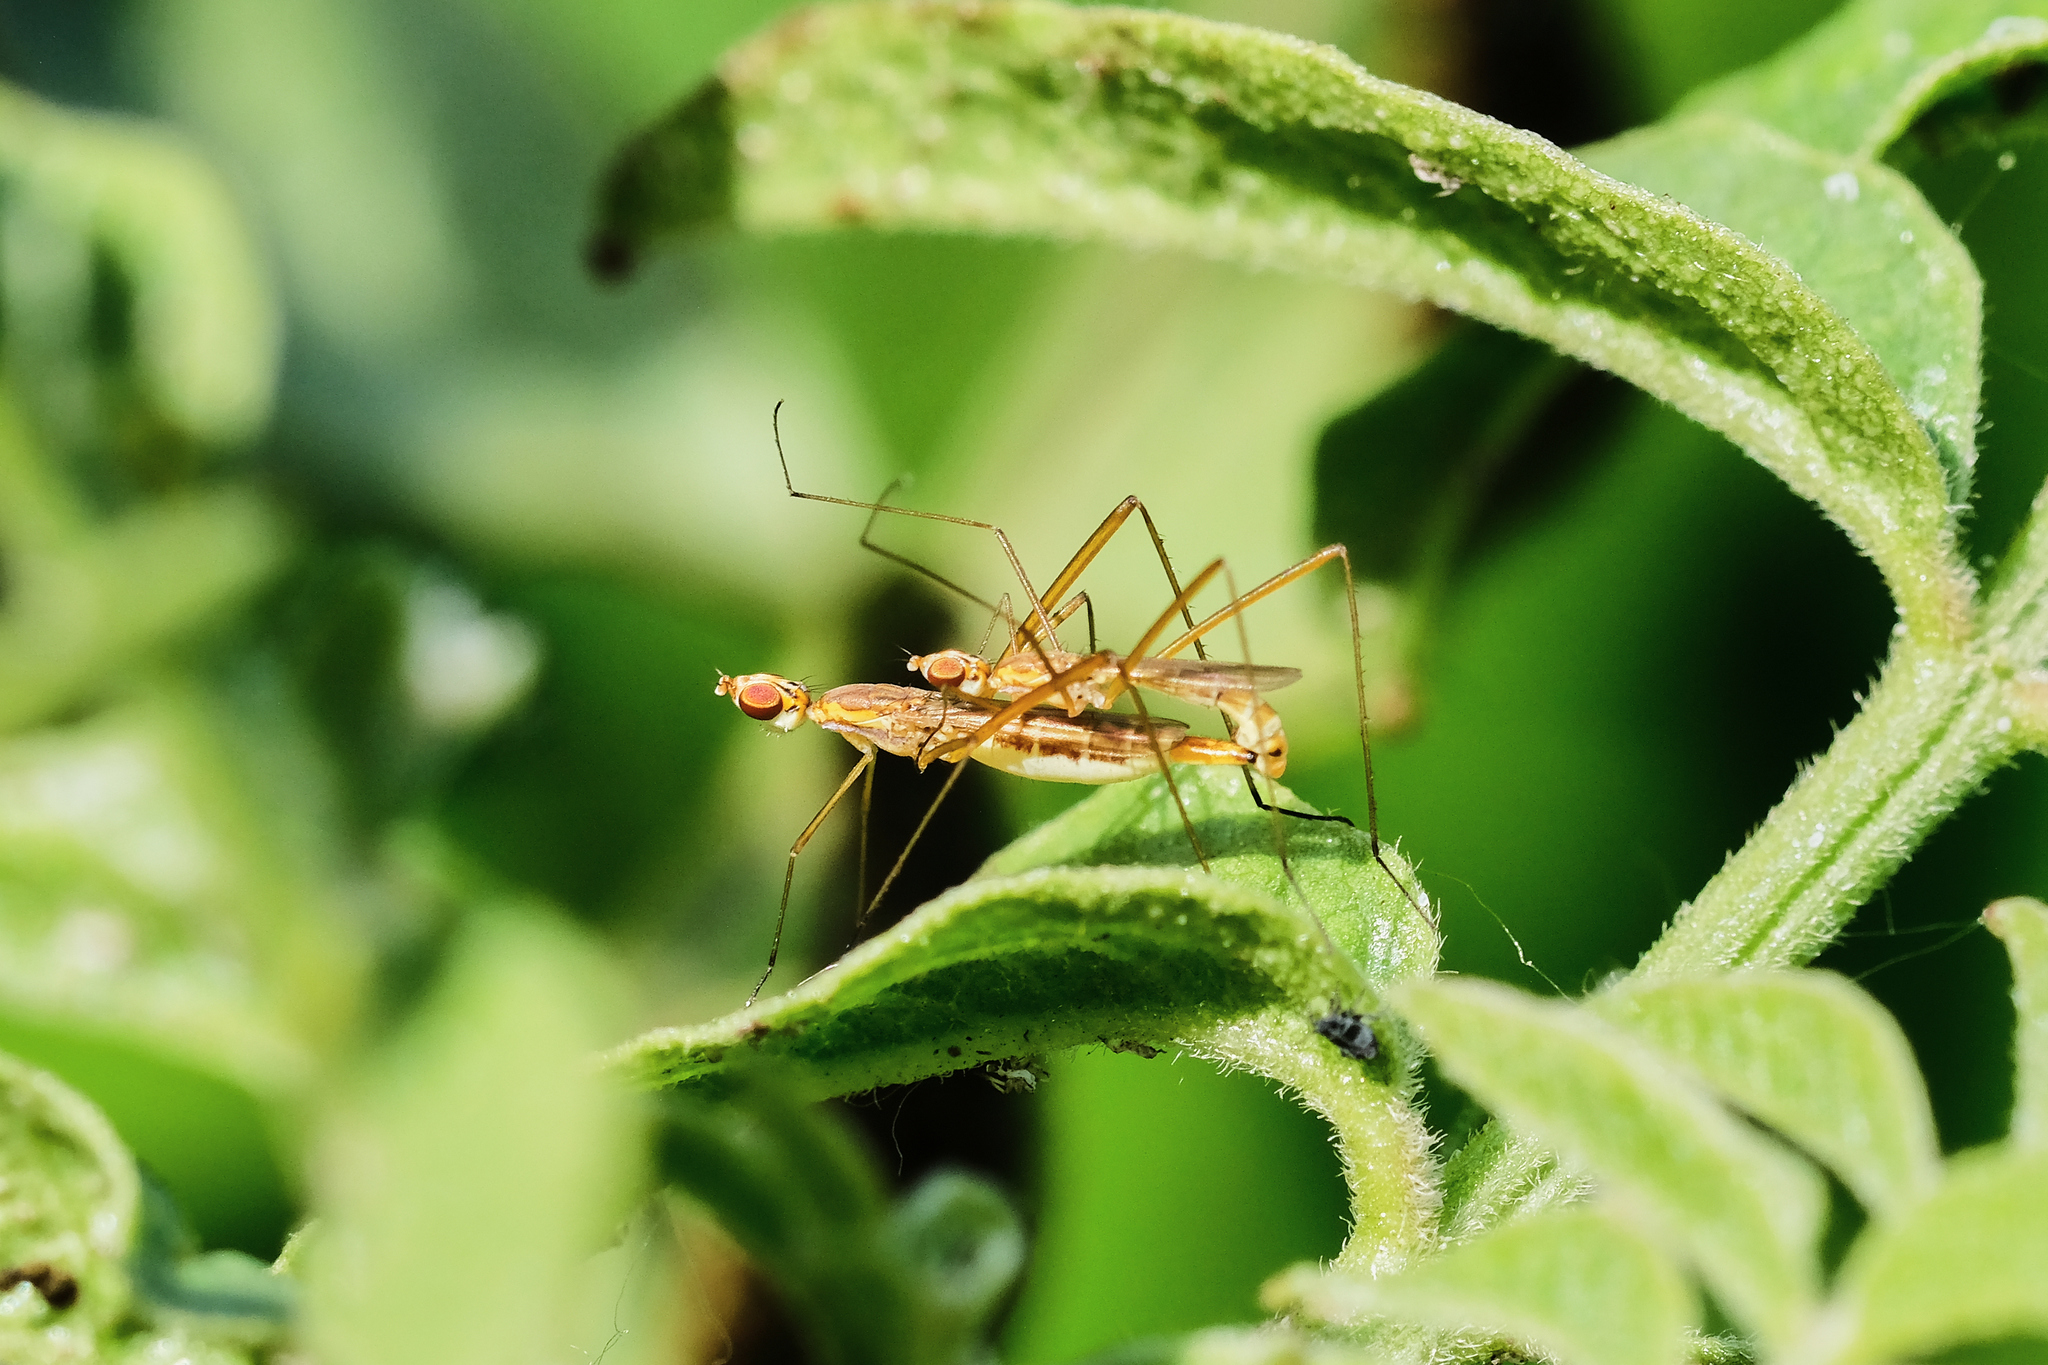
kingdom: Animalia
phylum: Arthropoda
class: Insecta
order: Diptera
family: Micropezidae
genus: Micropeza
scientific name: Micropeza angustipennis
